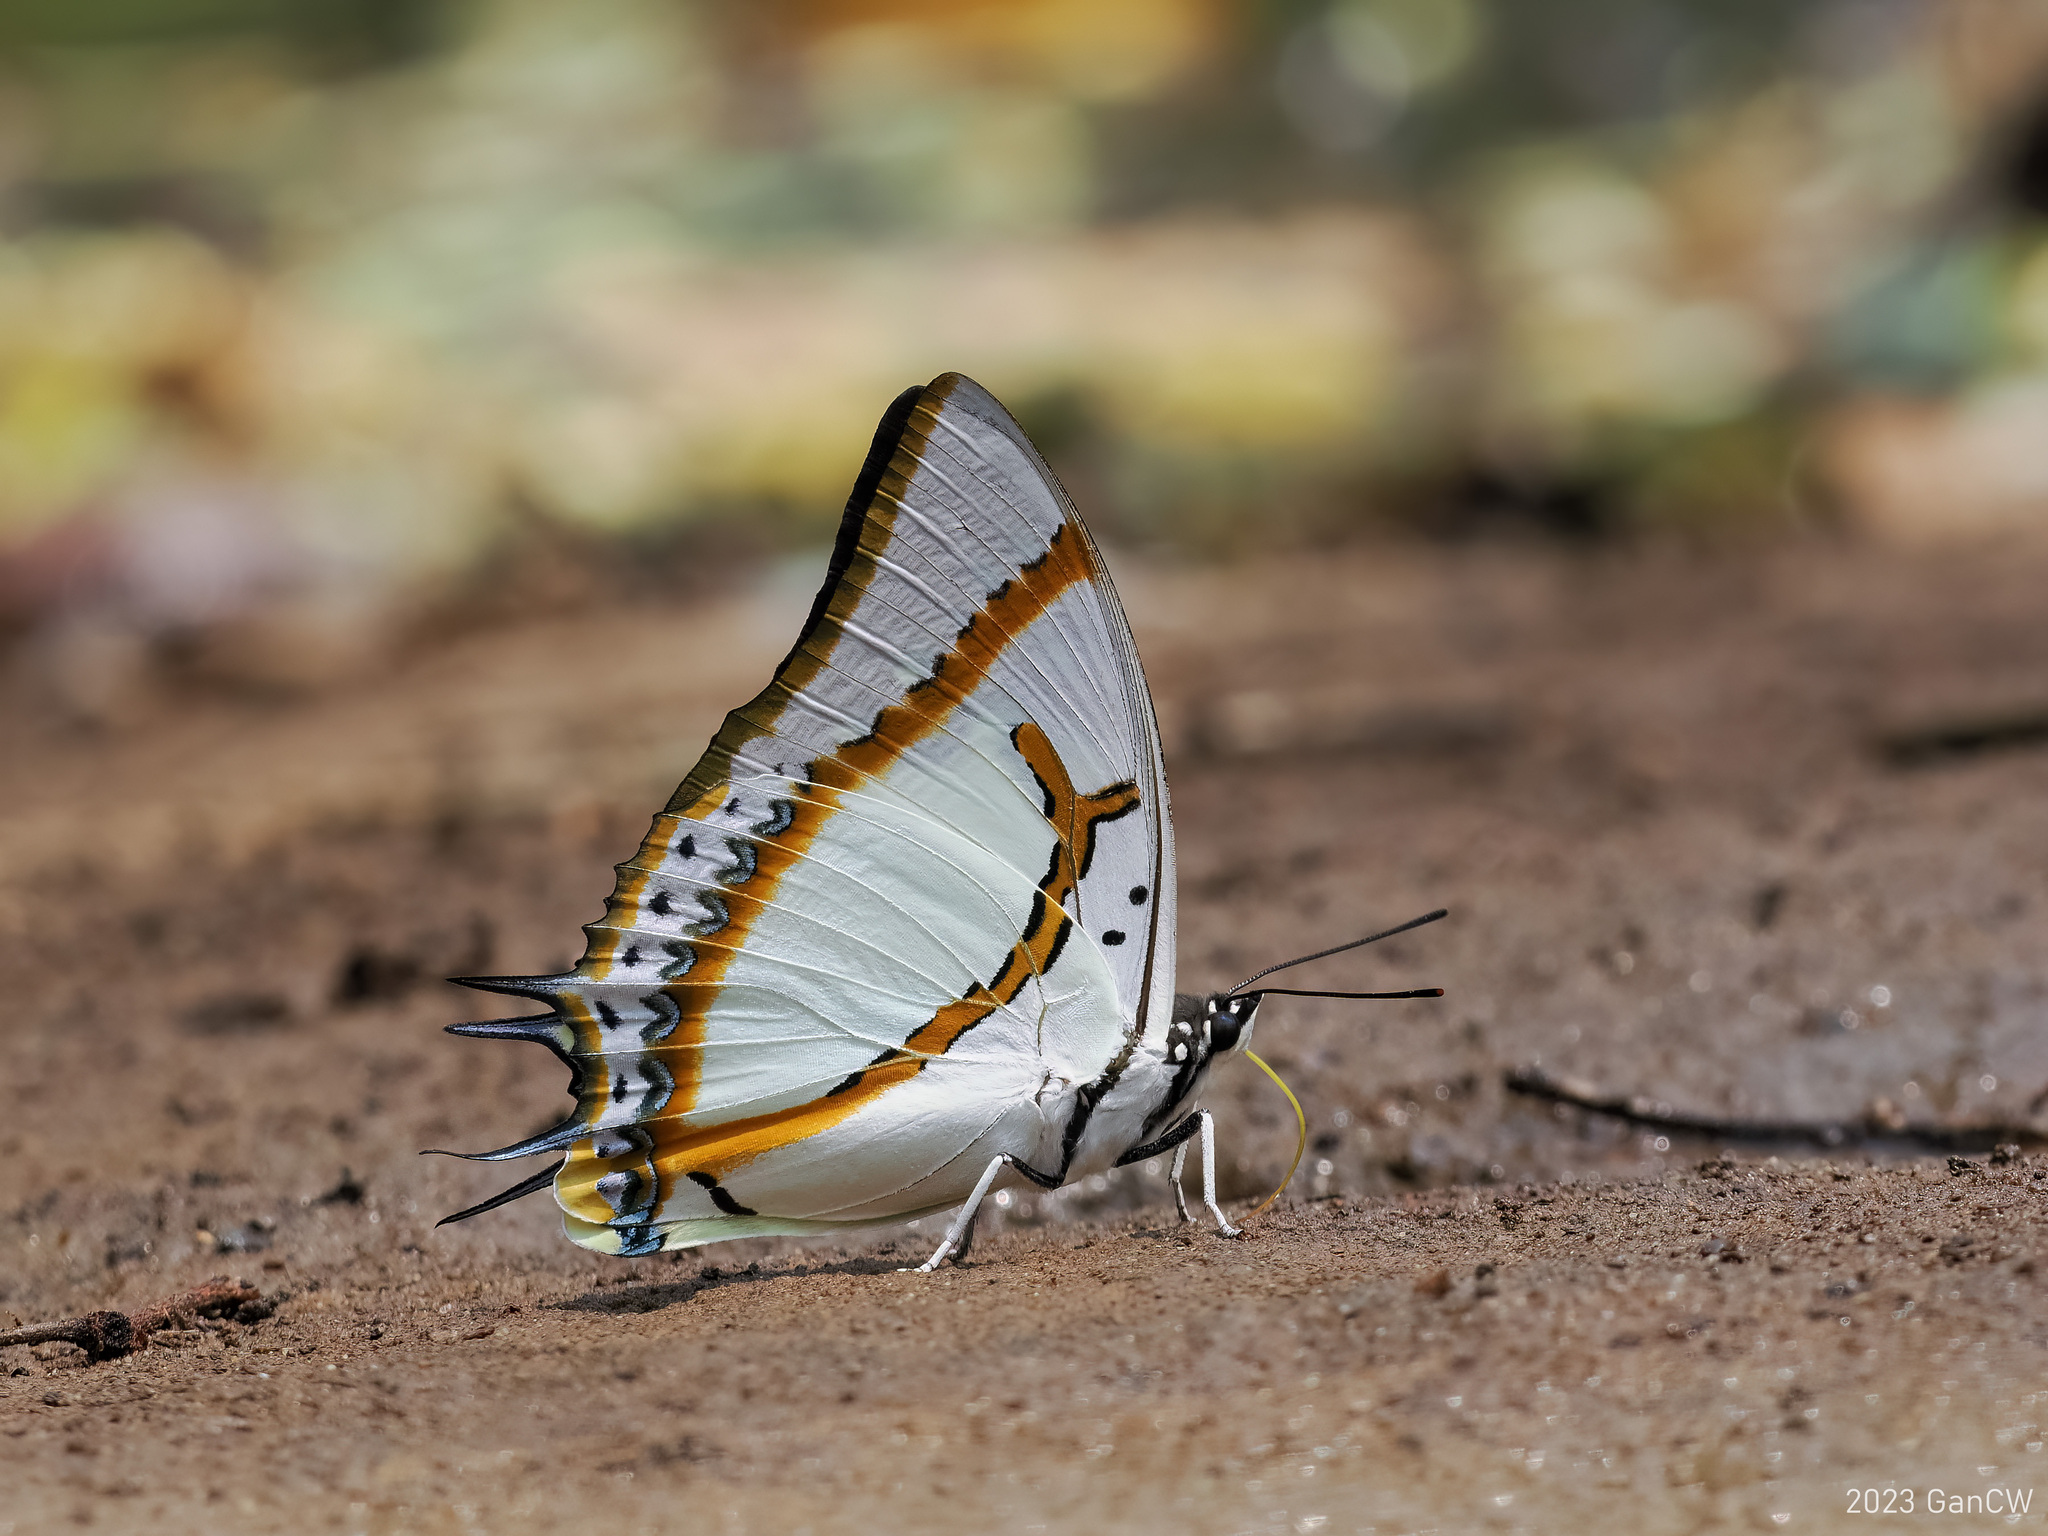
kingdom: Animalia
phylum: Arthropoda
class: Insecta
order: Lepidoptera
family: Nymphalidae
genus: Polyura
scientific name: Polyura eudamippus
